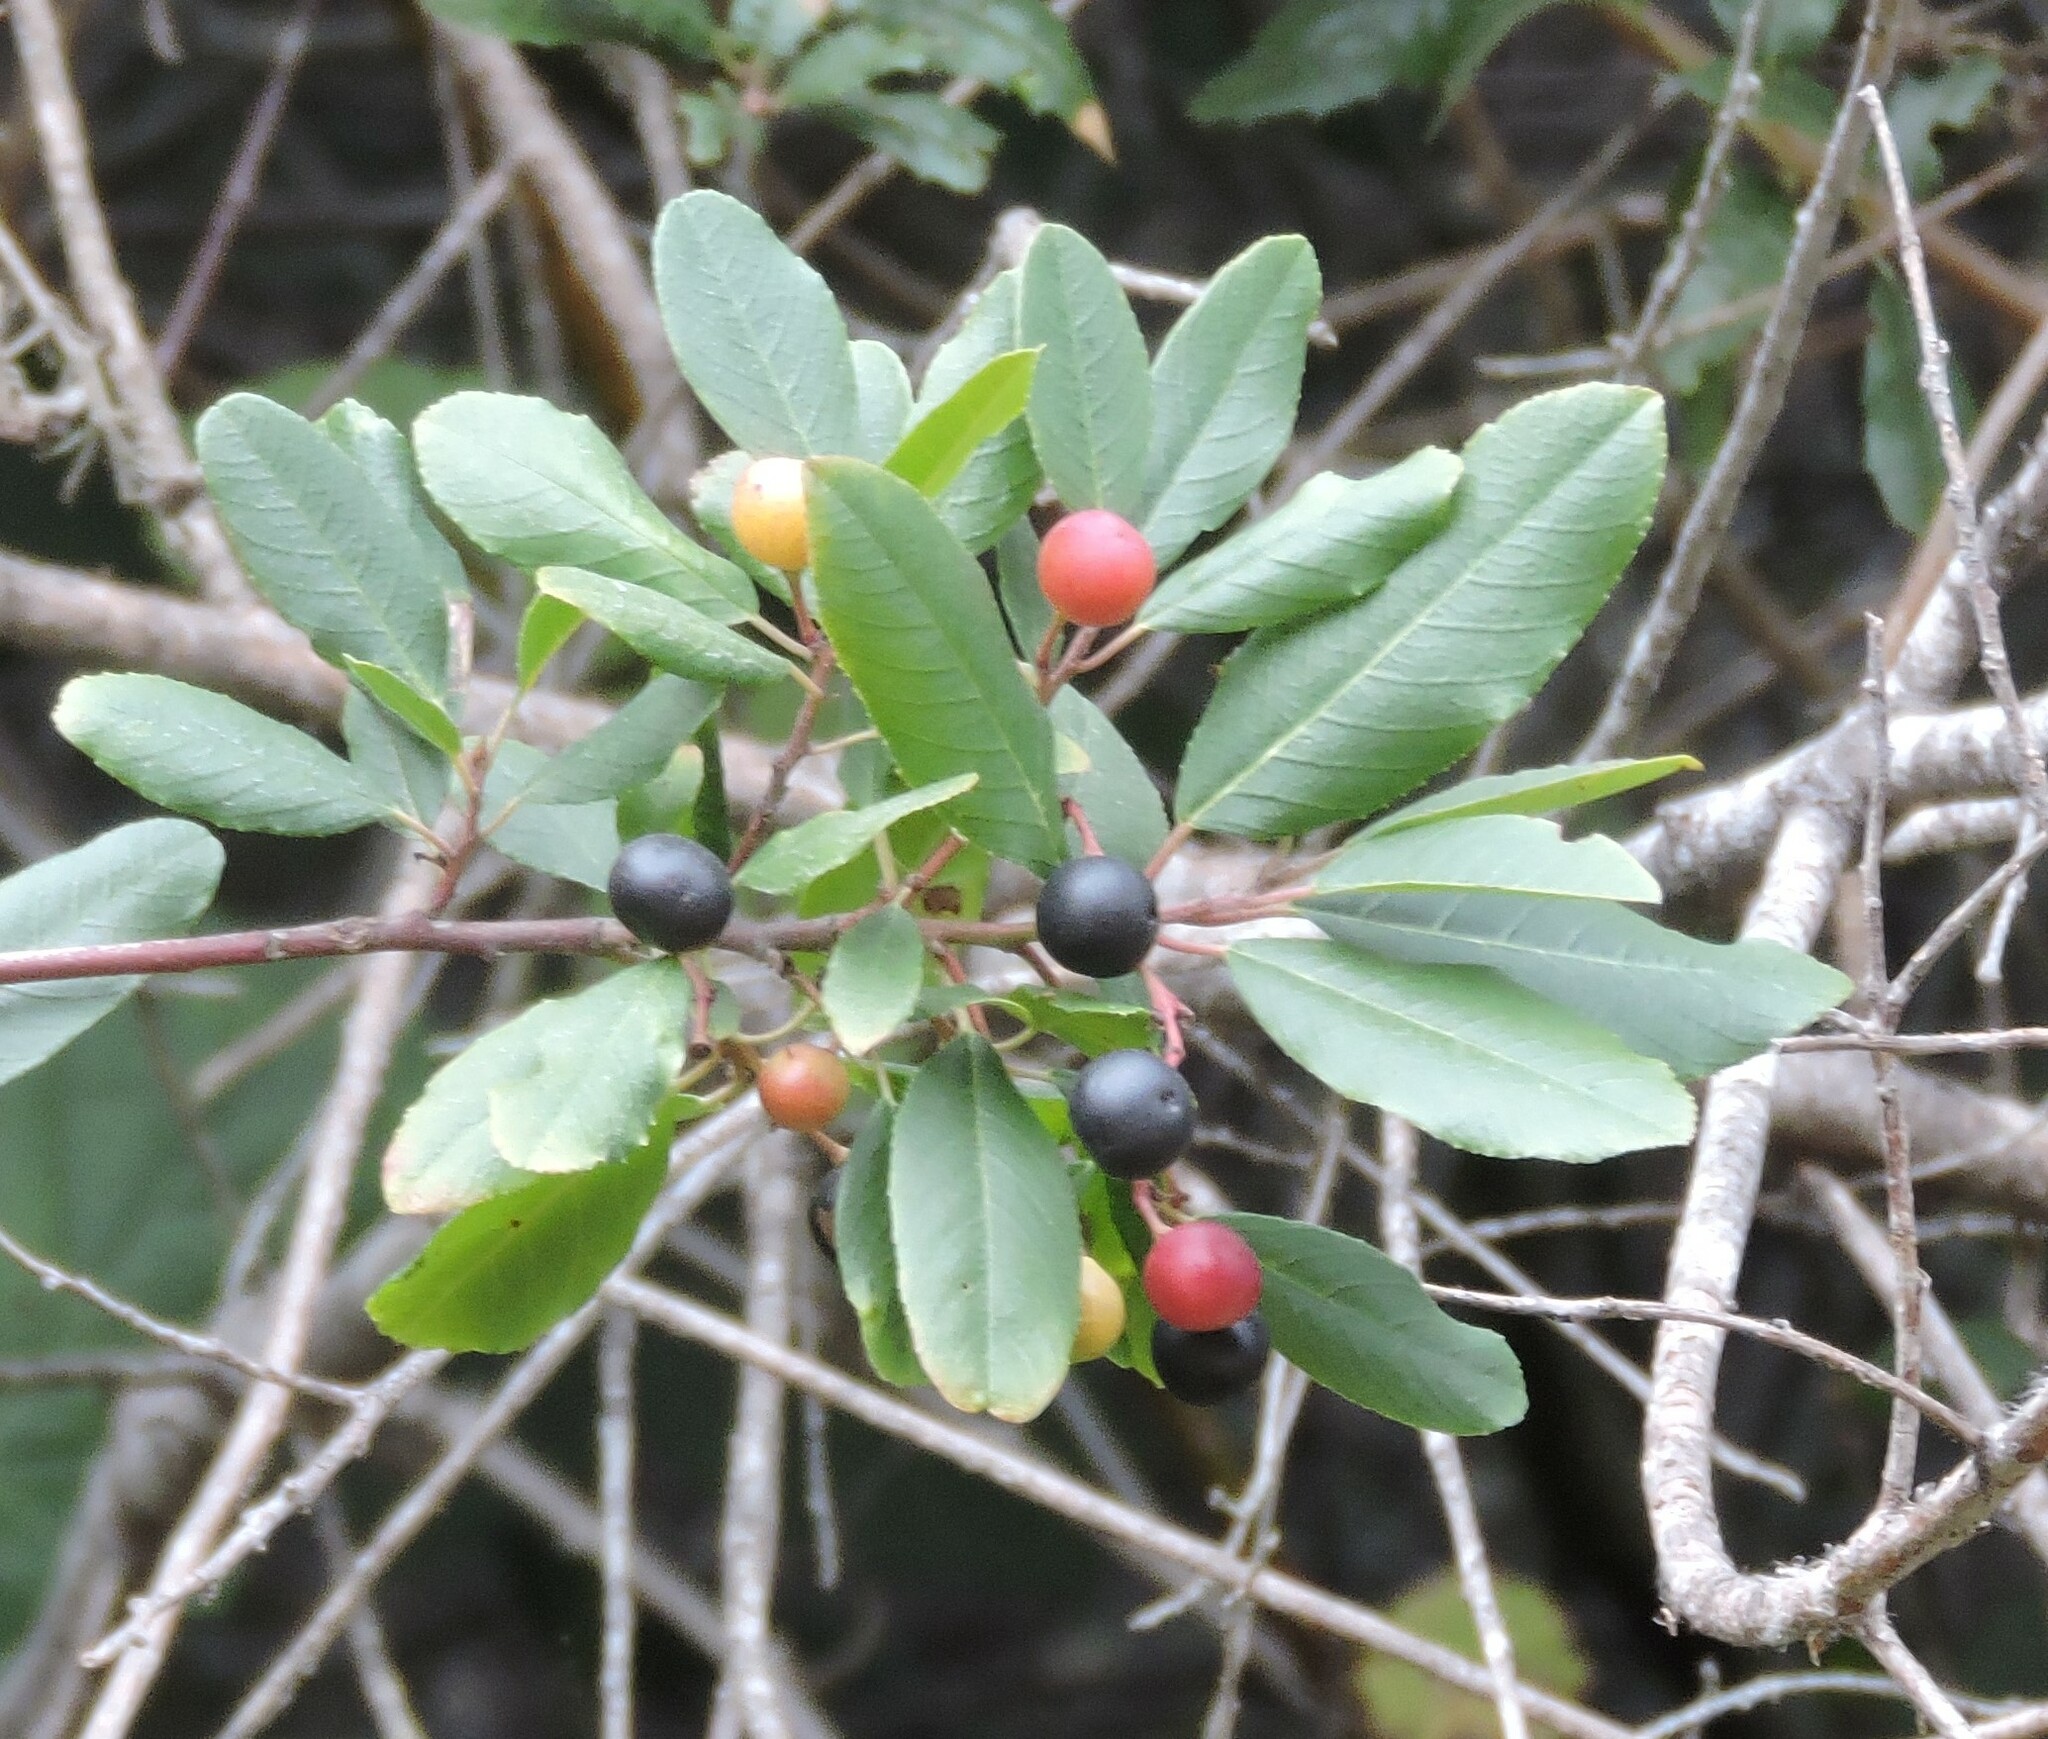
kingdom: Plantae
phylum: Tracheophyta
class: Magnoliopsida
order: Rosales
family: Rhamnaceae
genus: Frangula
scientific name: Frangula californica
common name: California buckthorn
